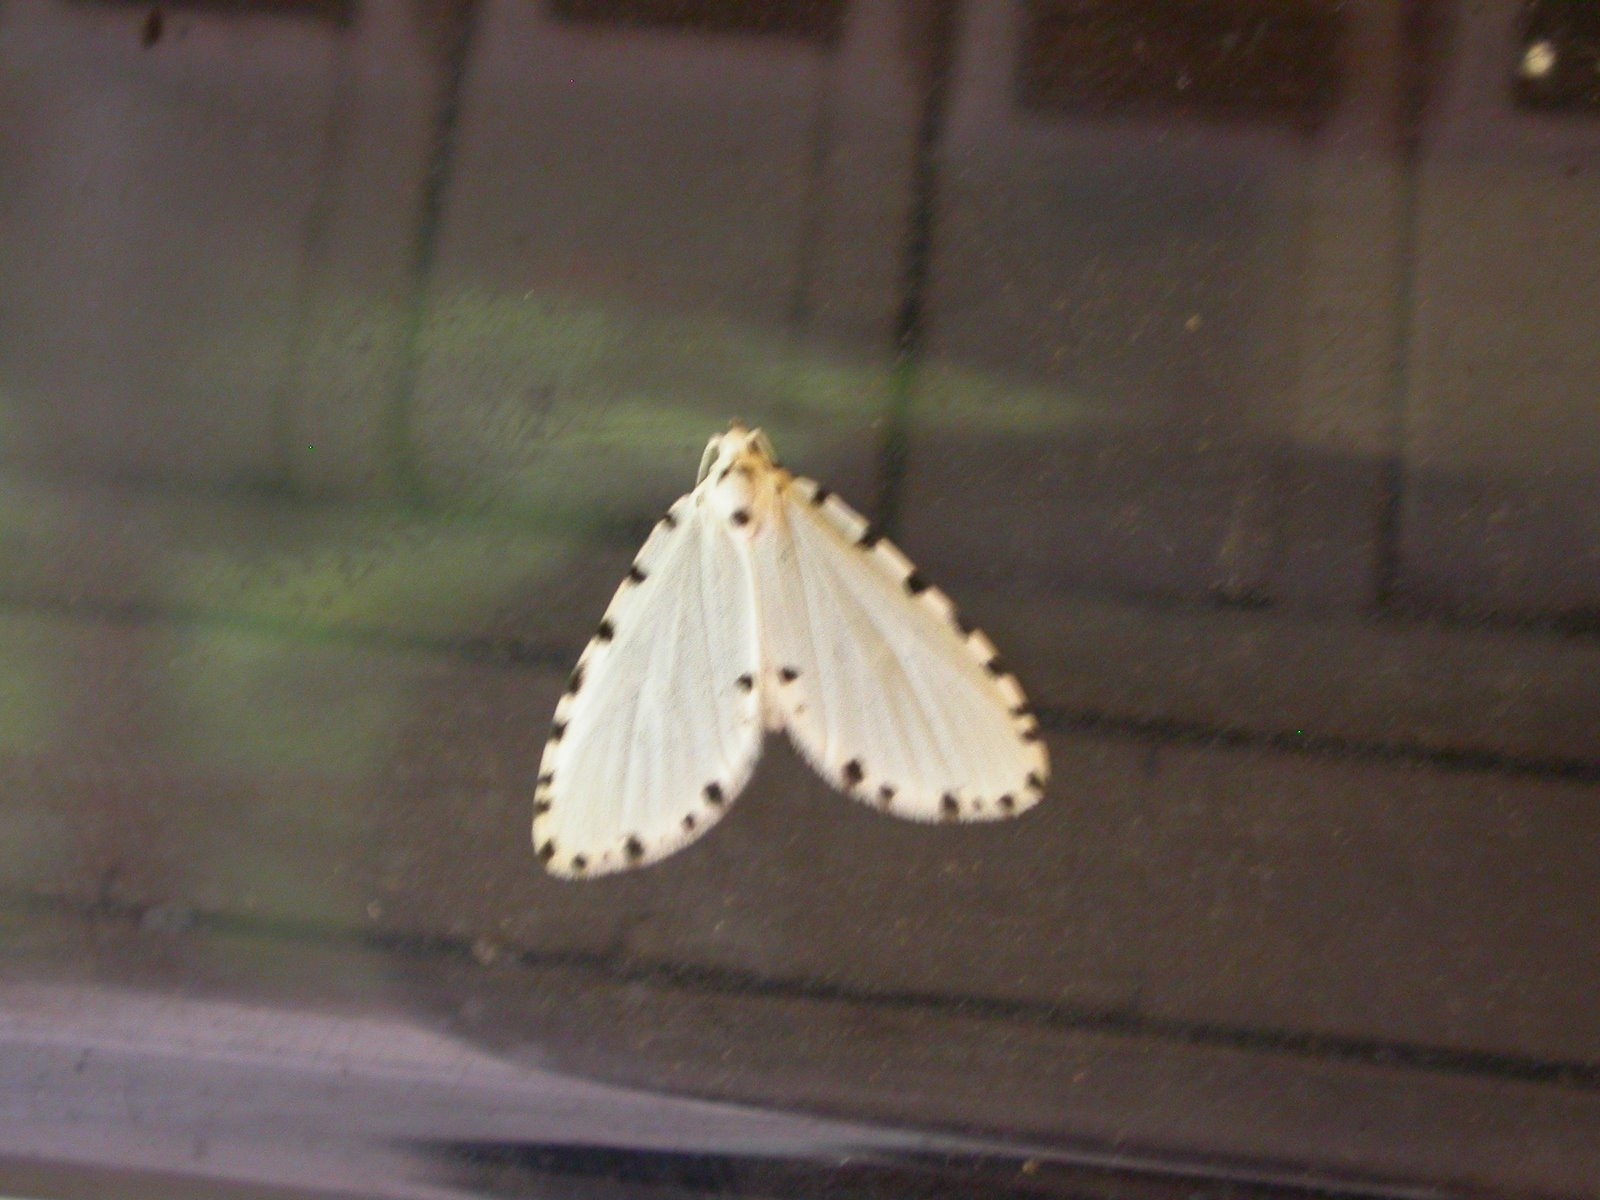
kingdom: Animalia
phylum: Arthropoda
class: Insecta
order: Lepidoptera
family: Noctuidae
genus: Metaemene
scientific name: Metaemene circumpunctata
